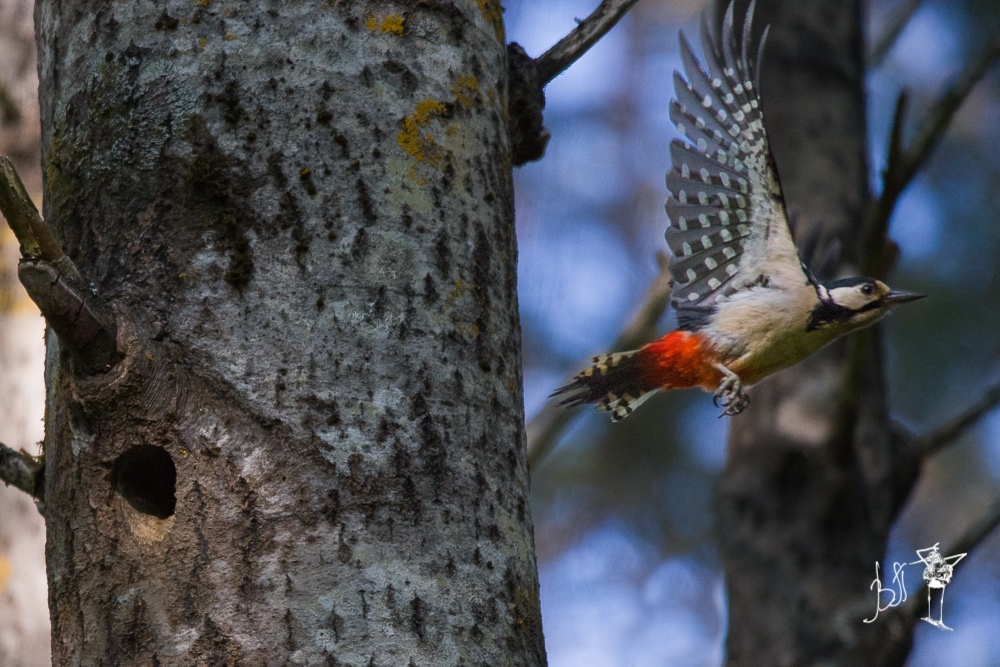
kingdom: Animalia
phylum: Chordata
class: Aves
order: Piciformes
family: Picidae
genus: Dendrocopos
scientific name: Dendrocopos major
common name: Great spotted woodpecker
